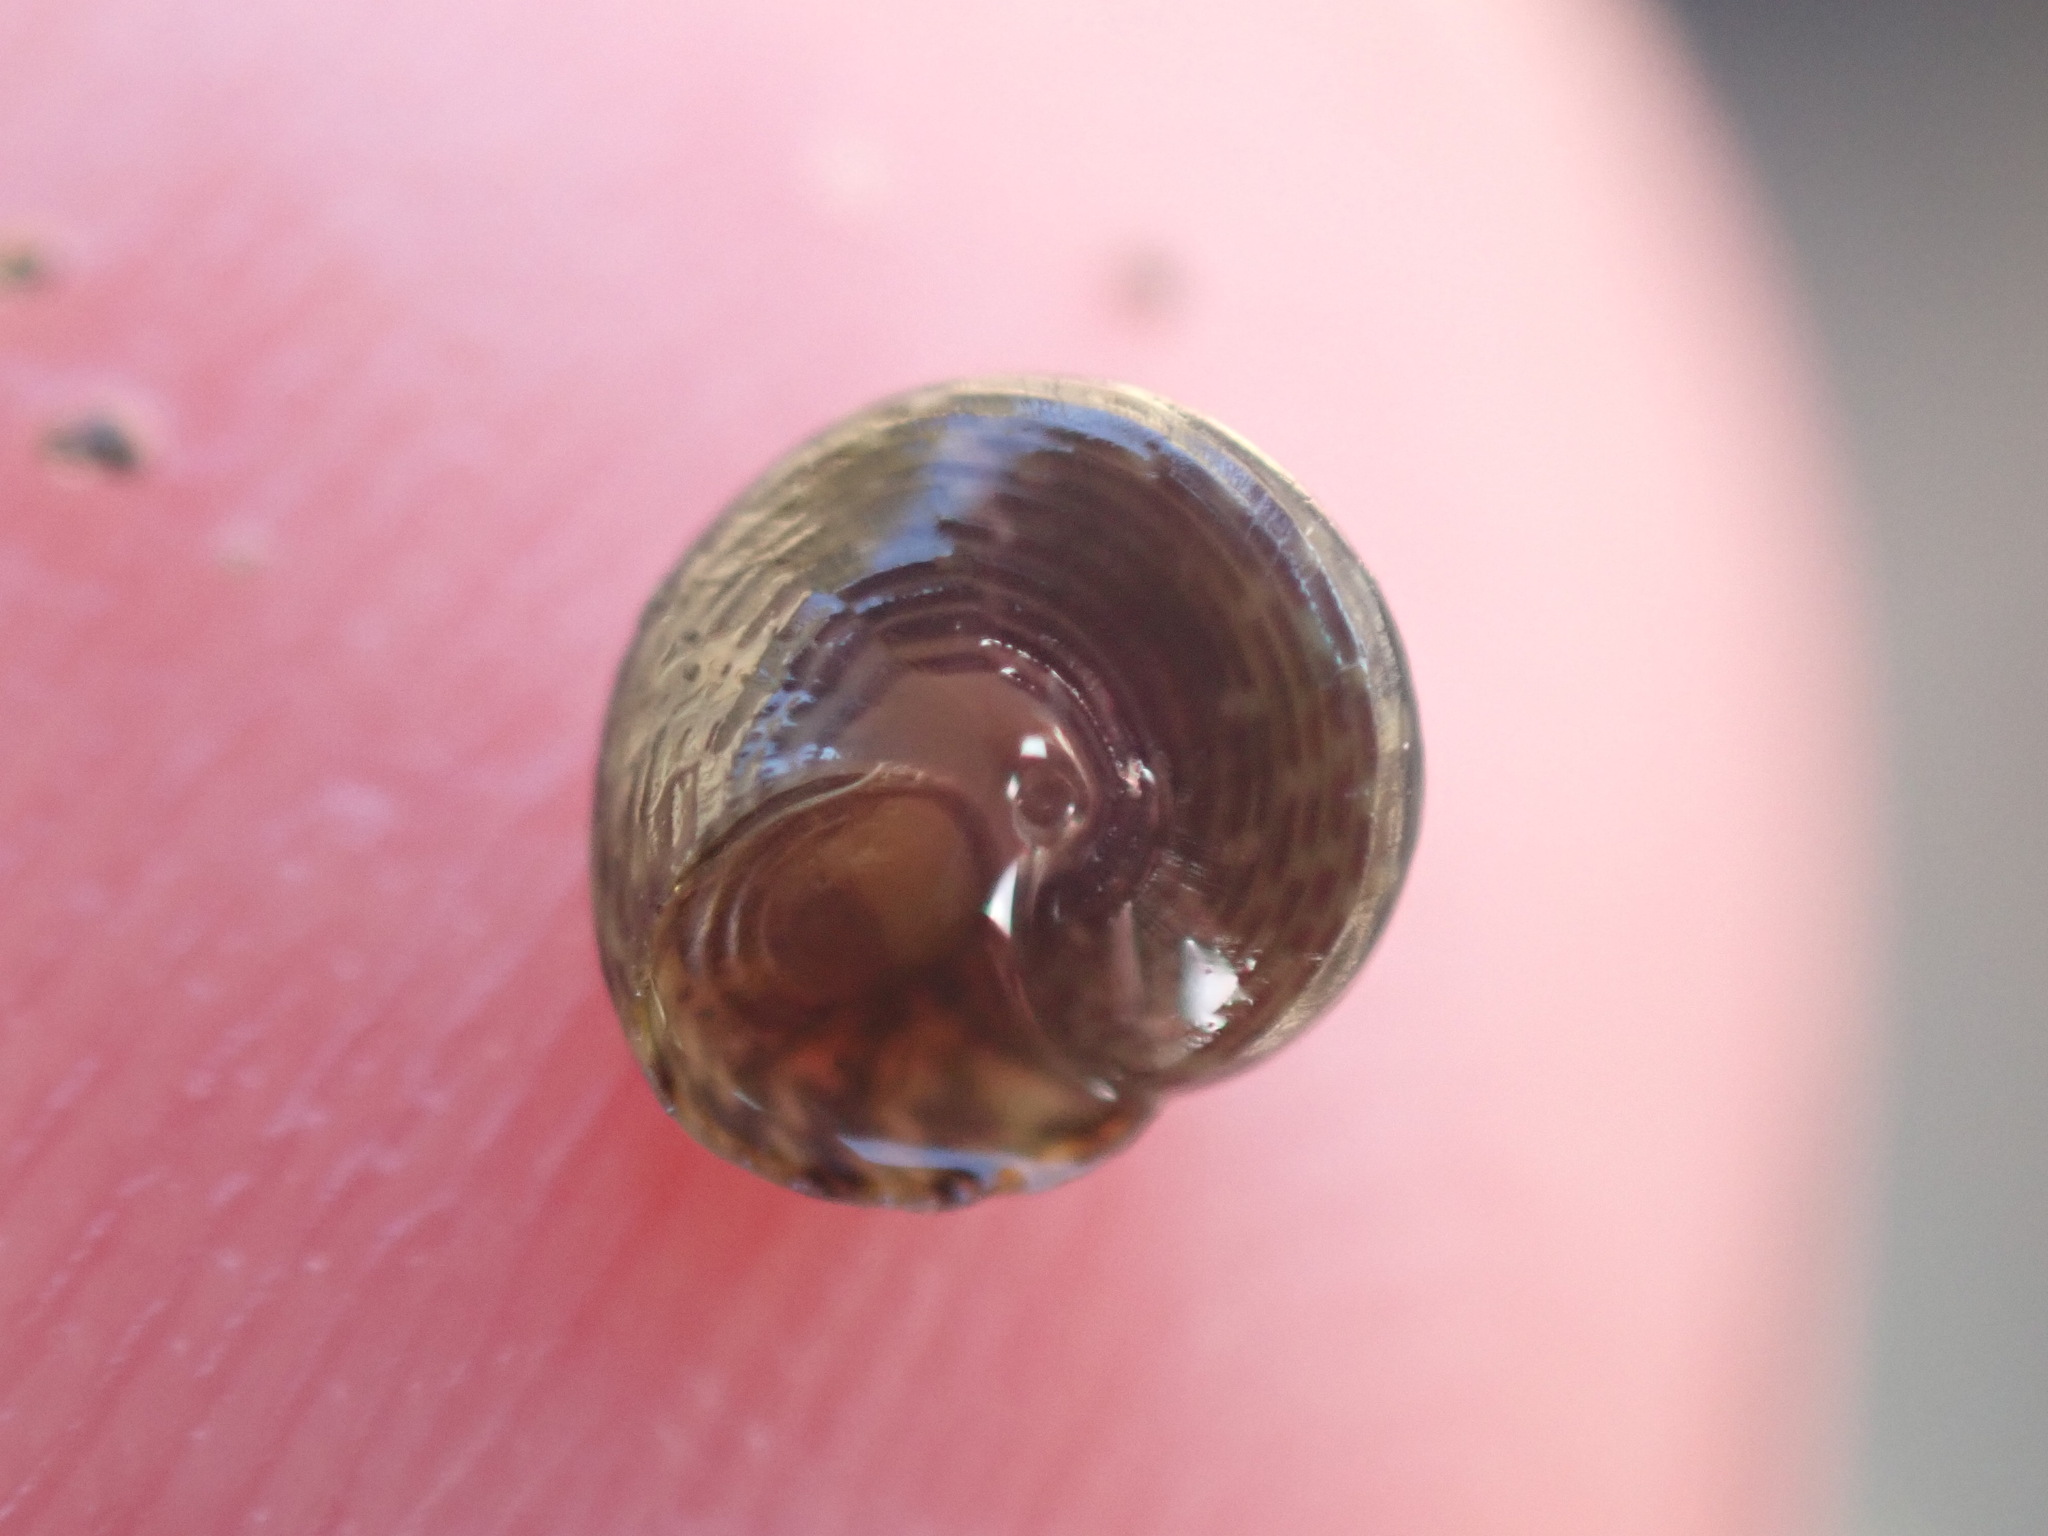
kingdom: Animalia
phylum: Mollusca
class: Gastropoda
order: Trochida
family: Trochidae
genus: Micrelenchus
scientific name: Micrelenchus tessellatus
